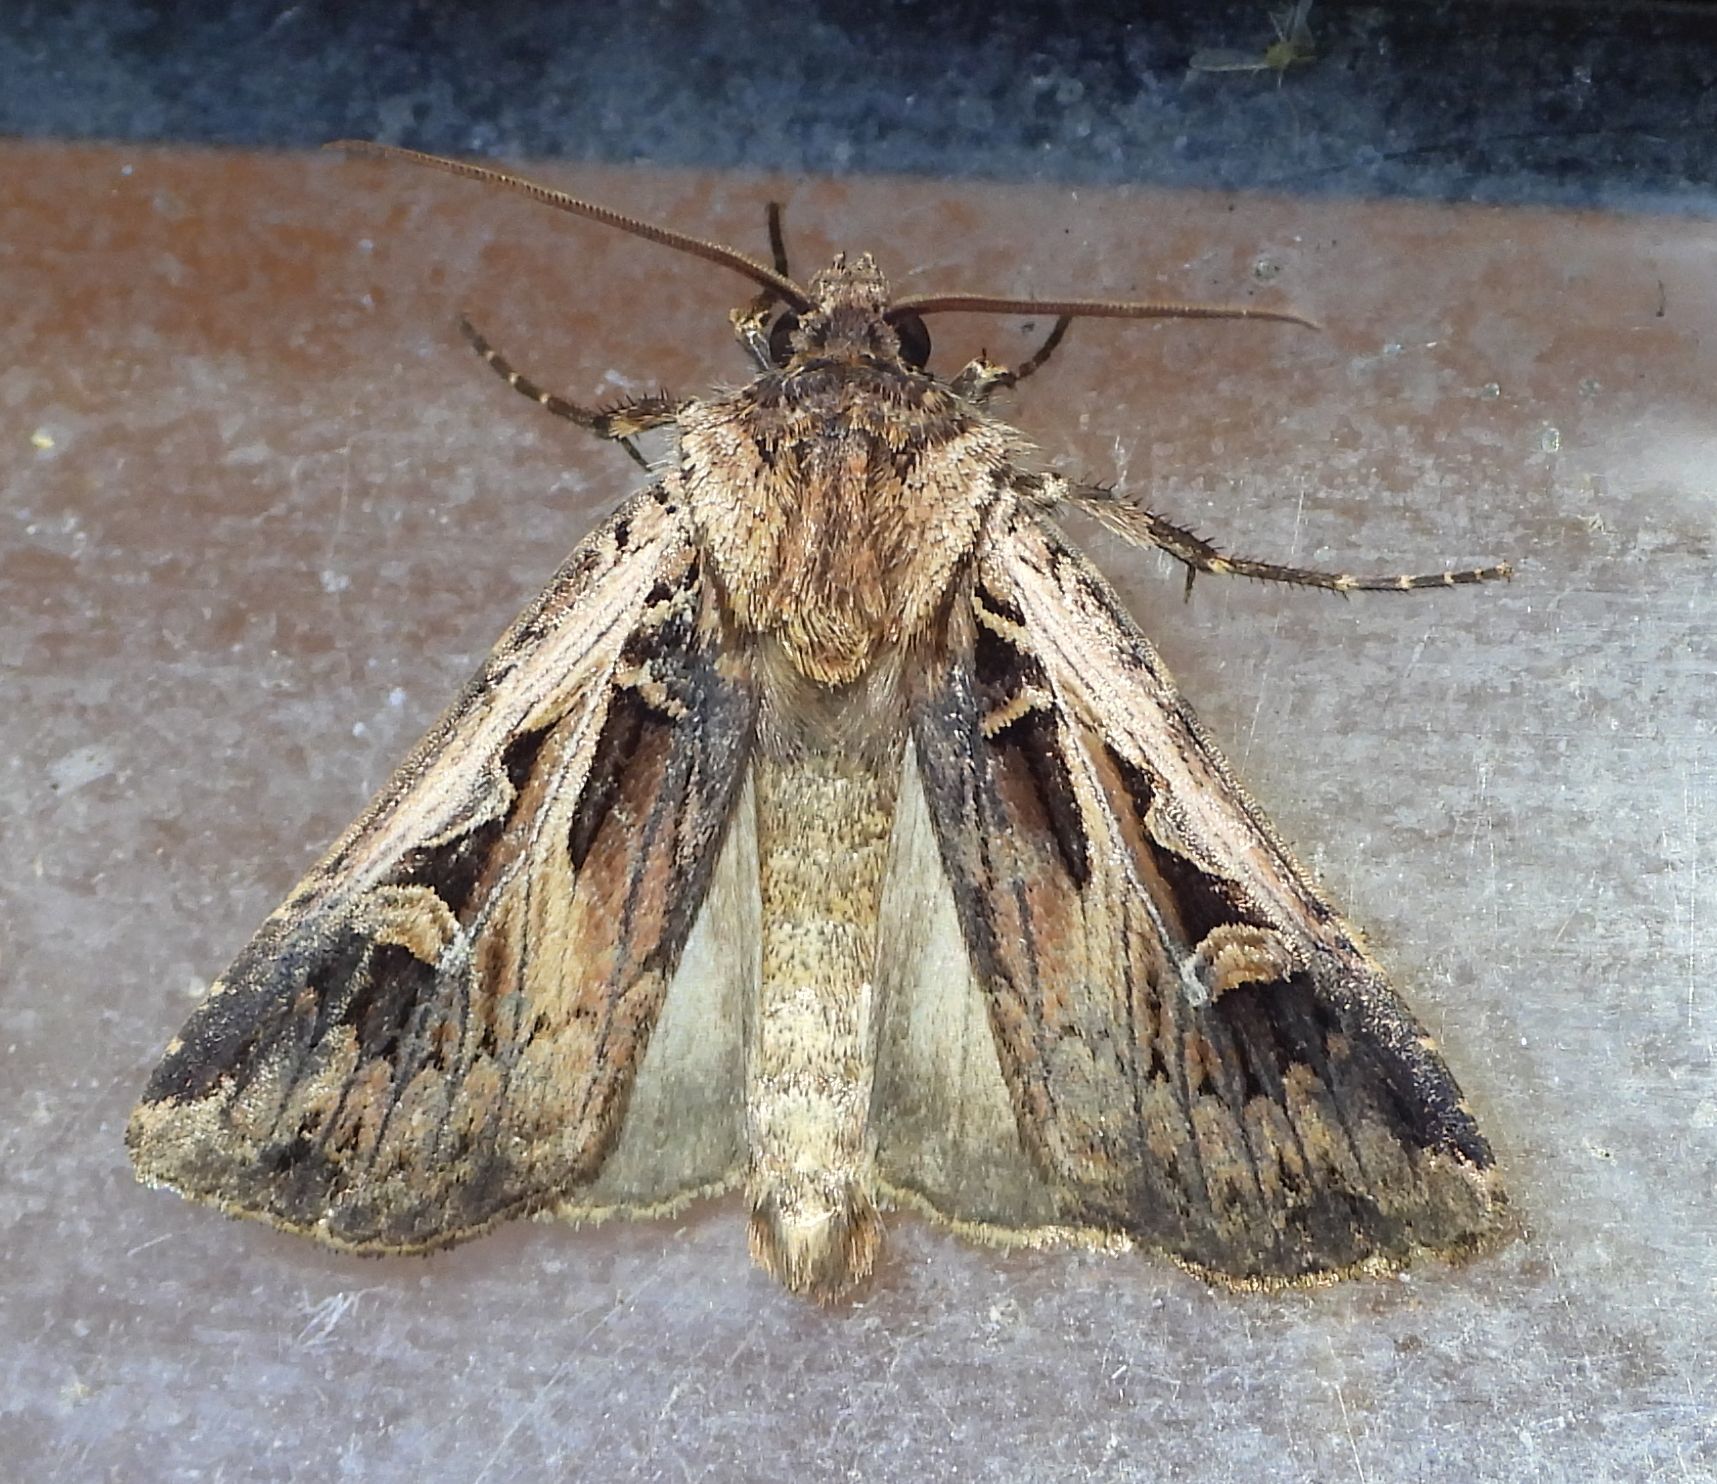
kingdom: Animalia
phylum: Arthropoda
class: Insecta
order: Lepidoptera
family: Noctuidae
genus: Feltia
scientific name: Feltia
